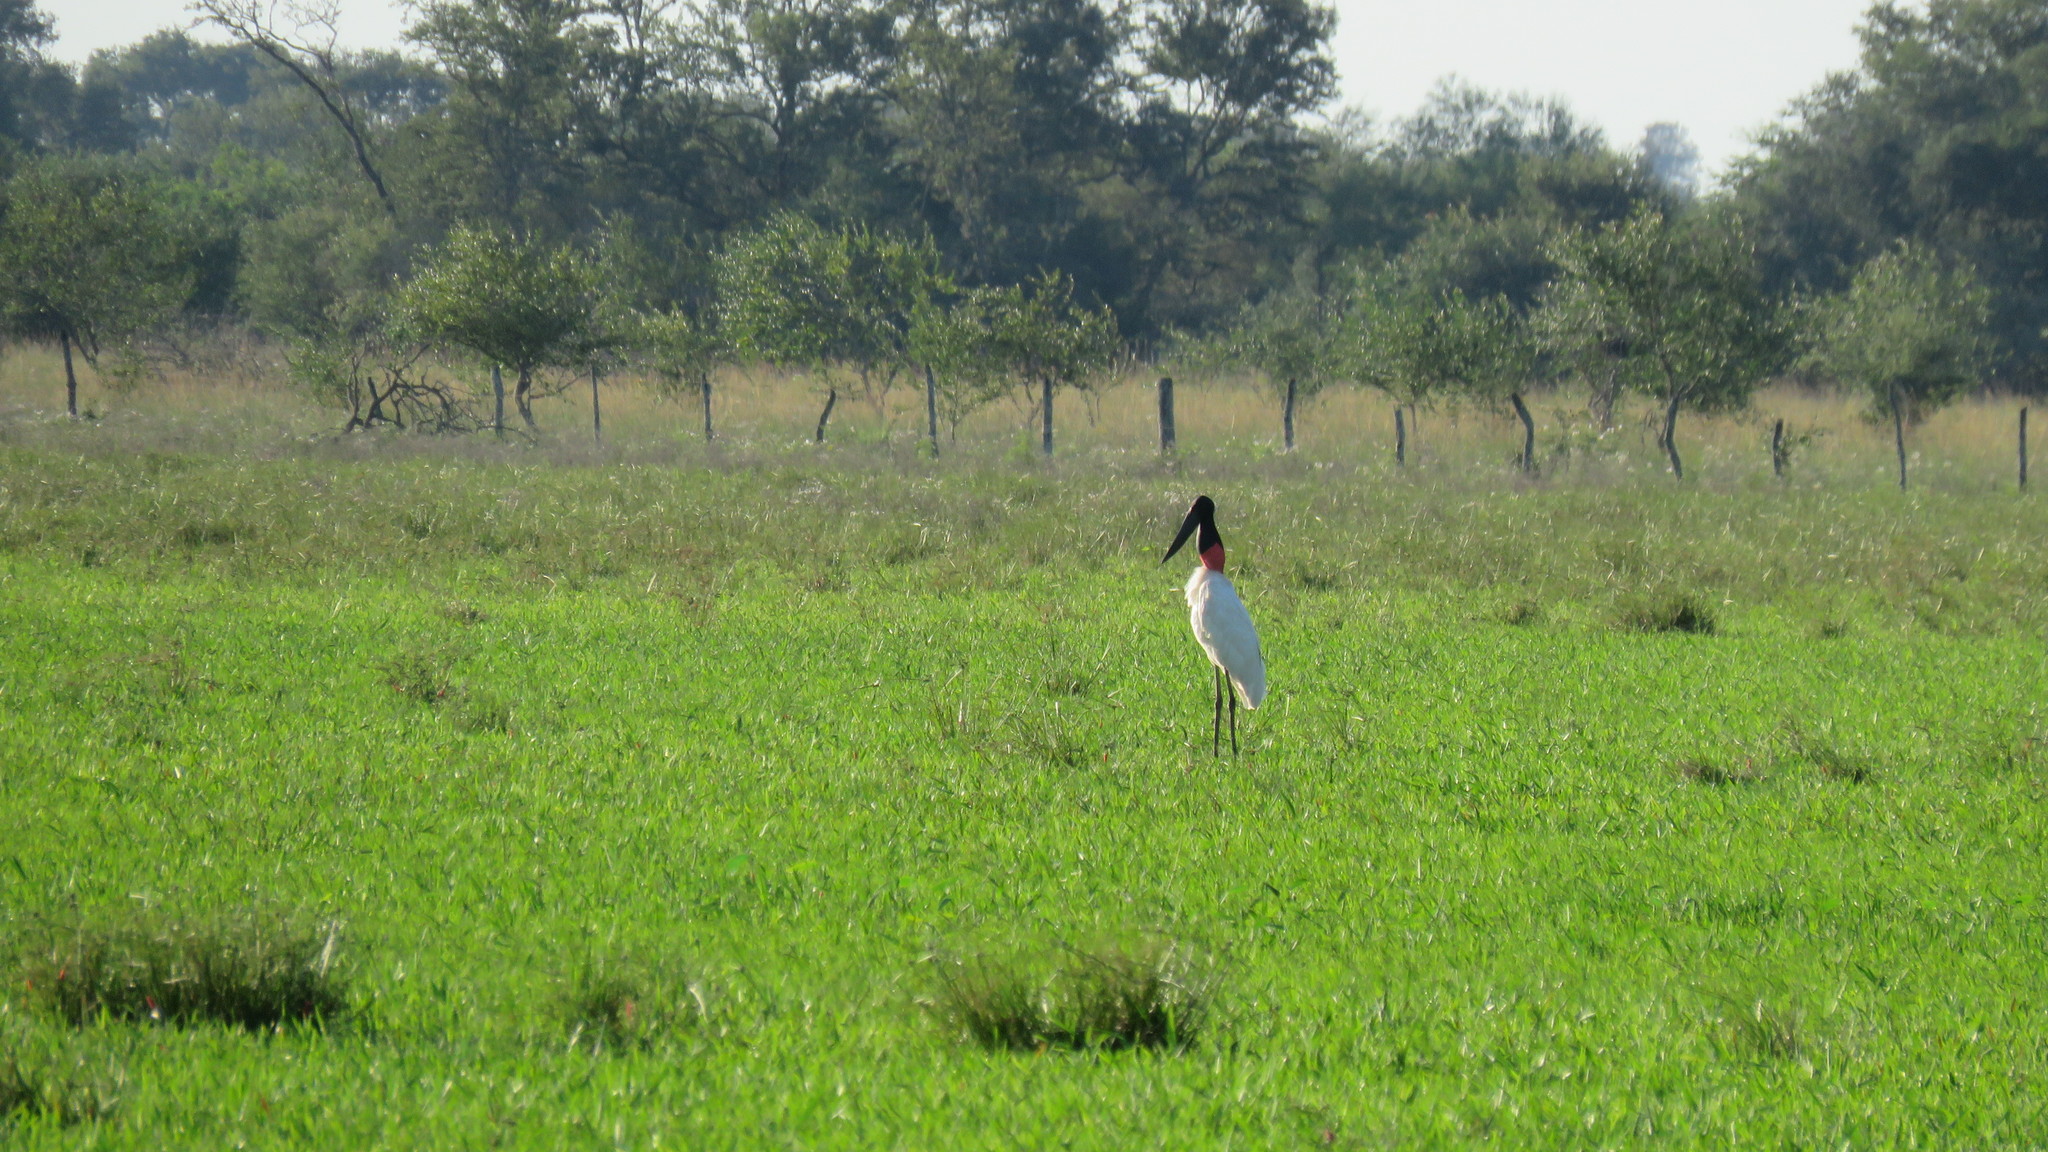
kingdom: Animalia
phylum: Chordata
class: Aves
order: Ciconiiformes
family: Ciconiidae
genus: Jabiru
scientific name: Jabiru mycteria
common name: Jabiru
